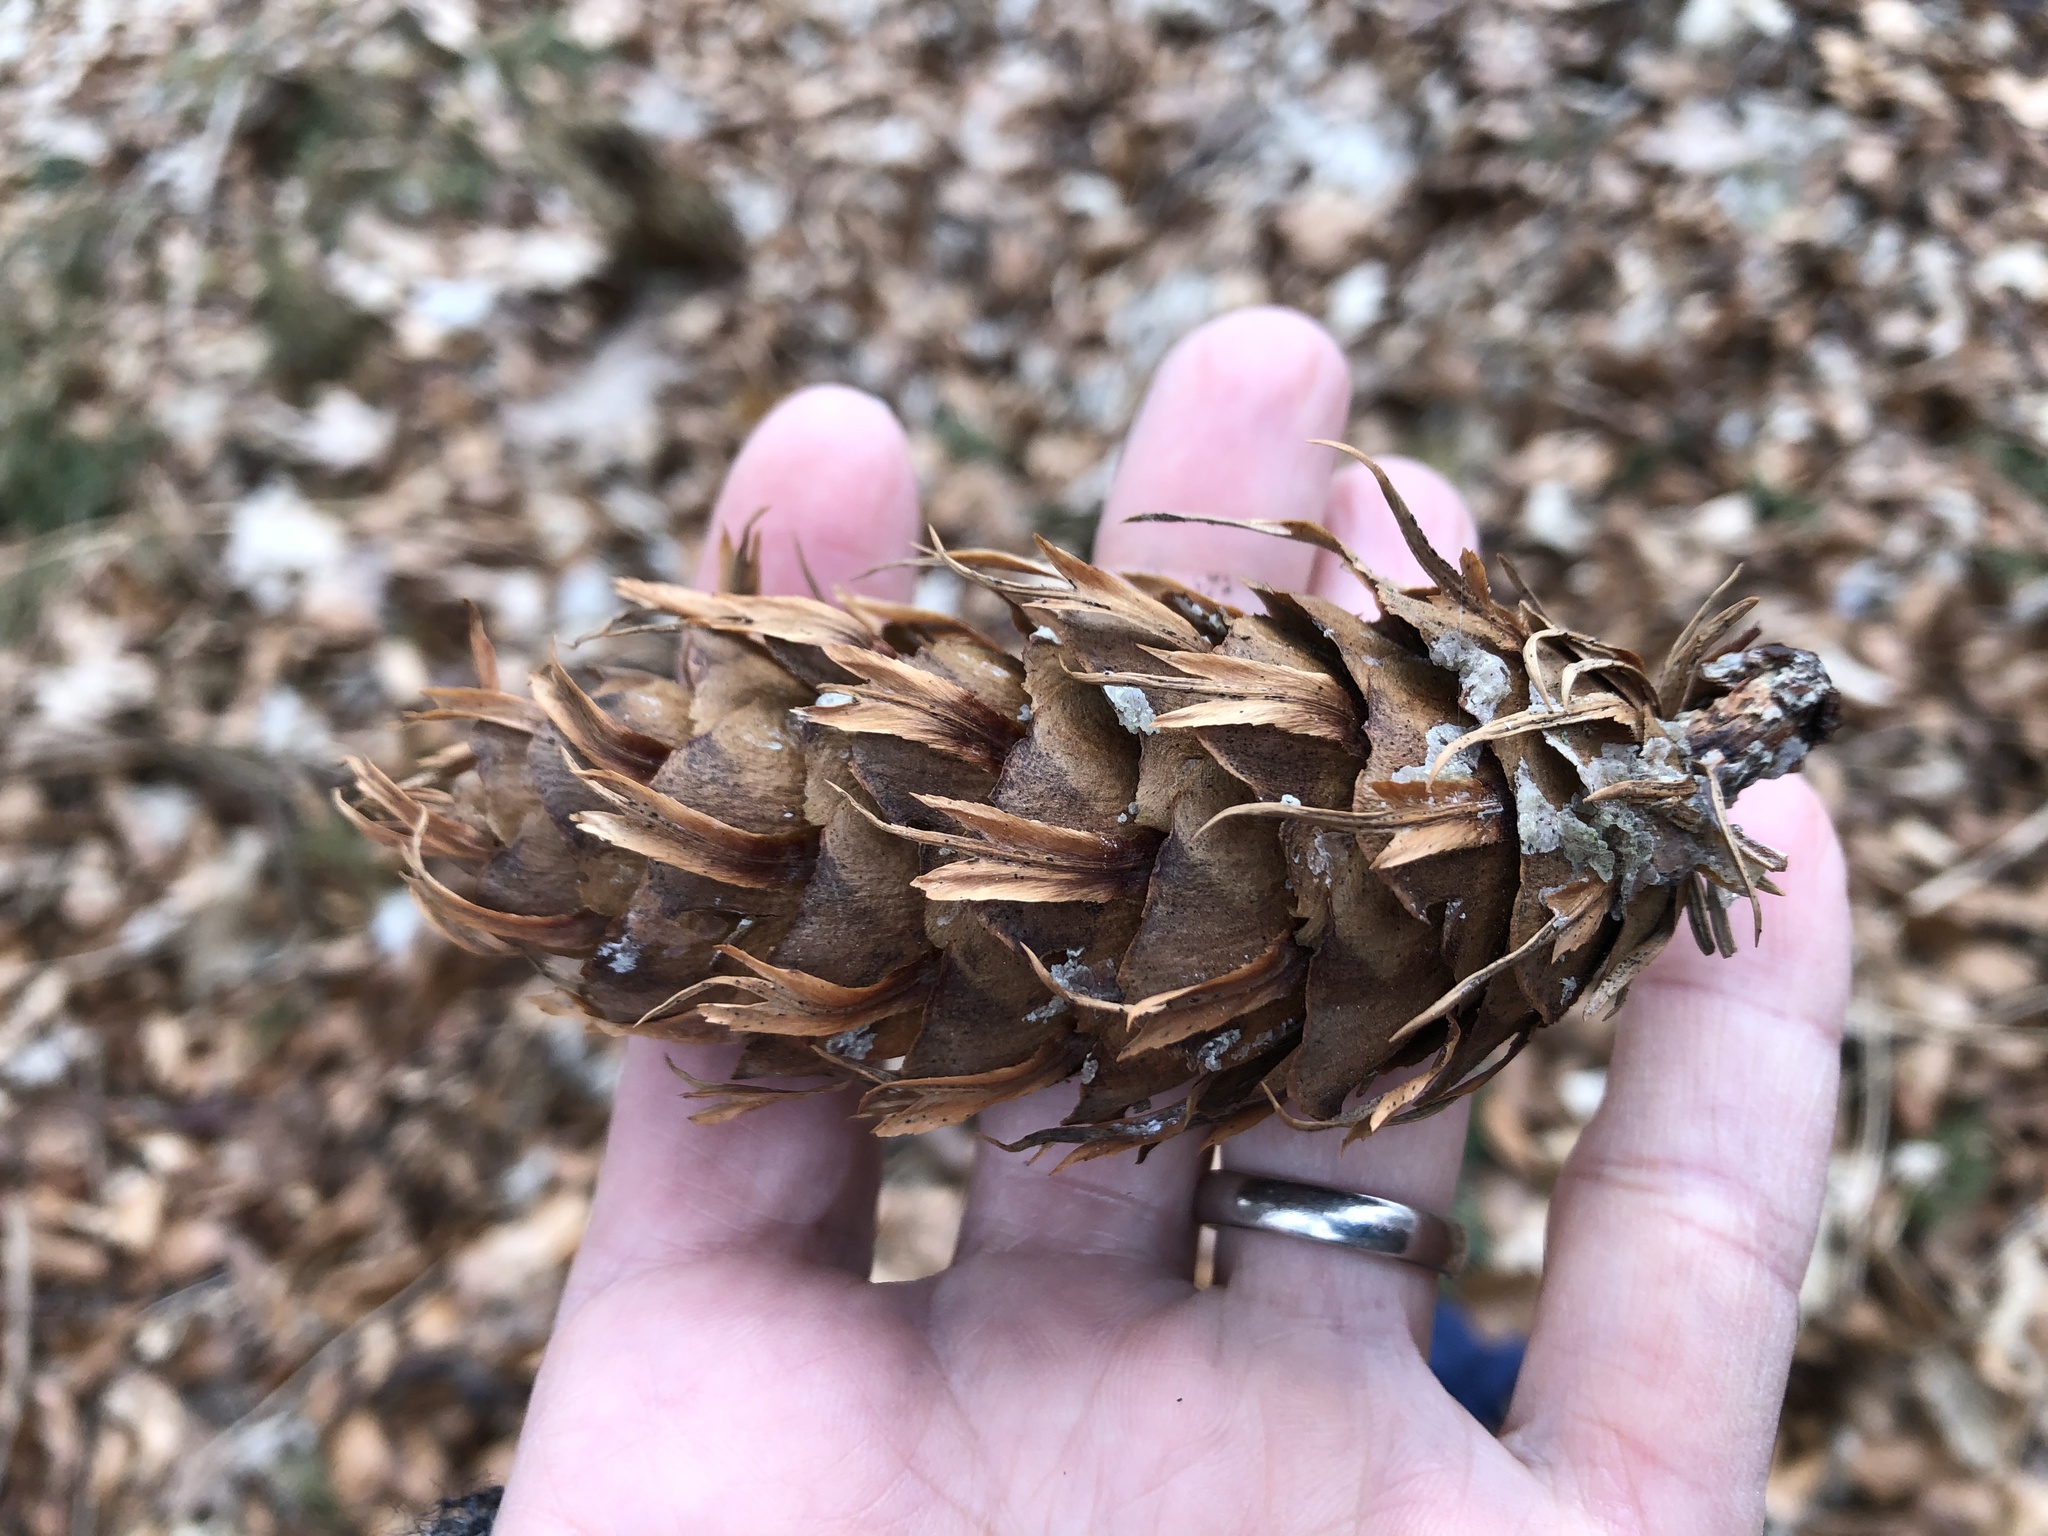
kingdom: Plantae
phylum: Tracheophyta
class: Pinopsida
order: Pinales
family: Pinaceae
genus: Pseudotsuga
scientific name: Pseudotsuga menziesii
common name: Douglas fir
